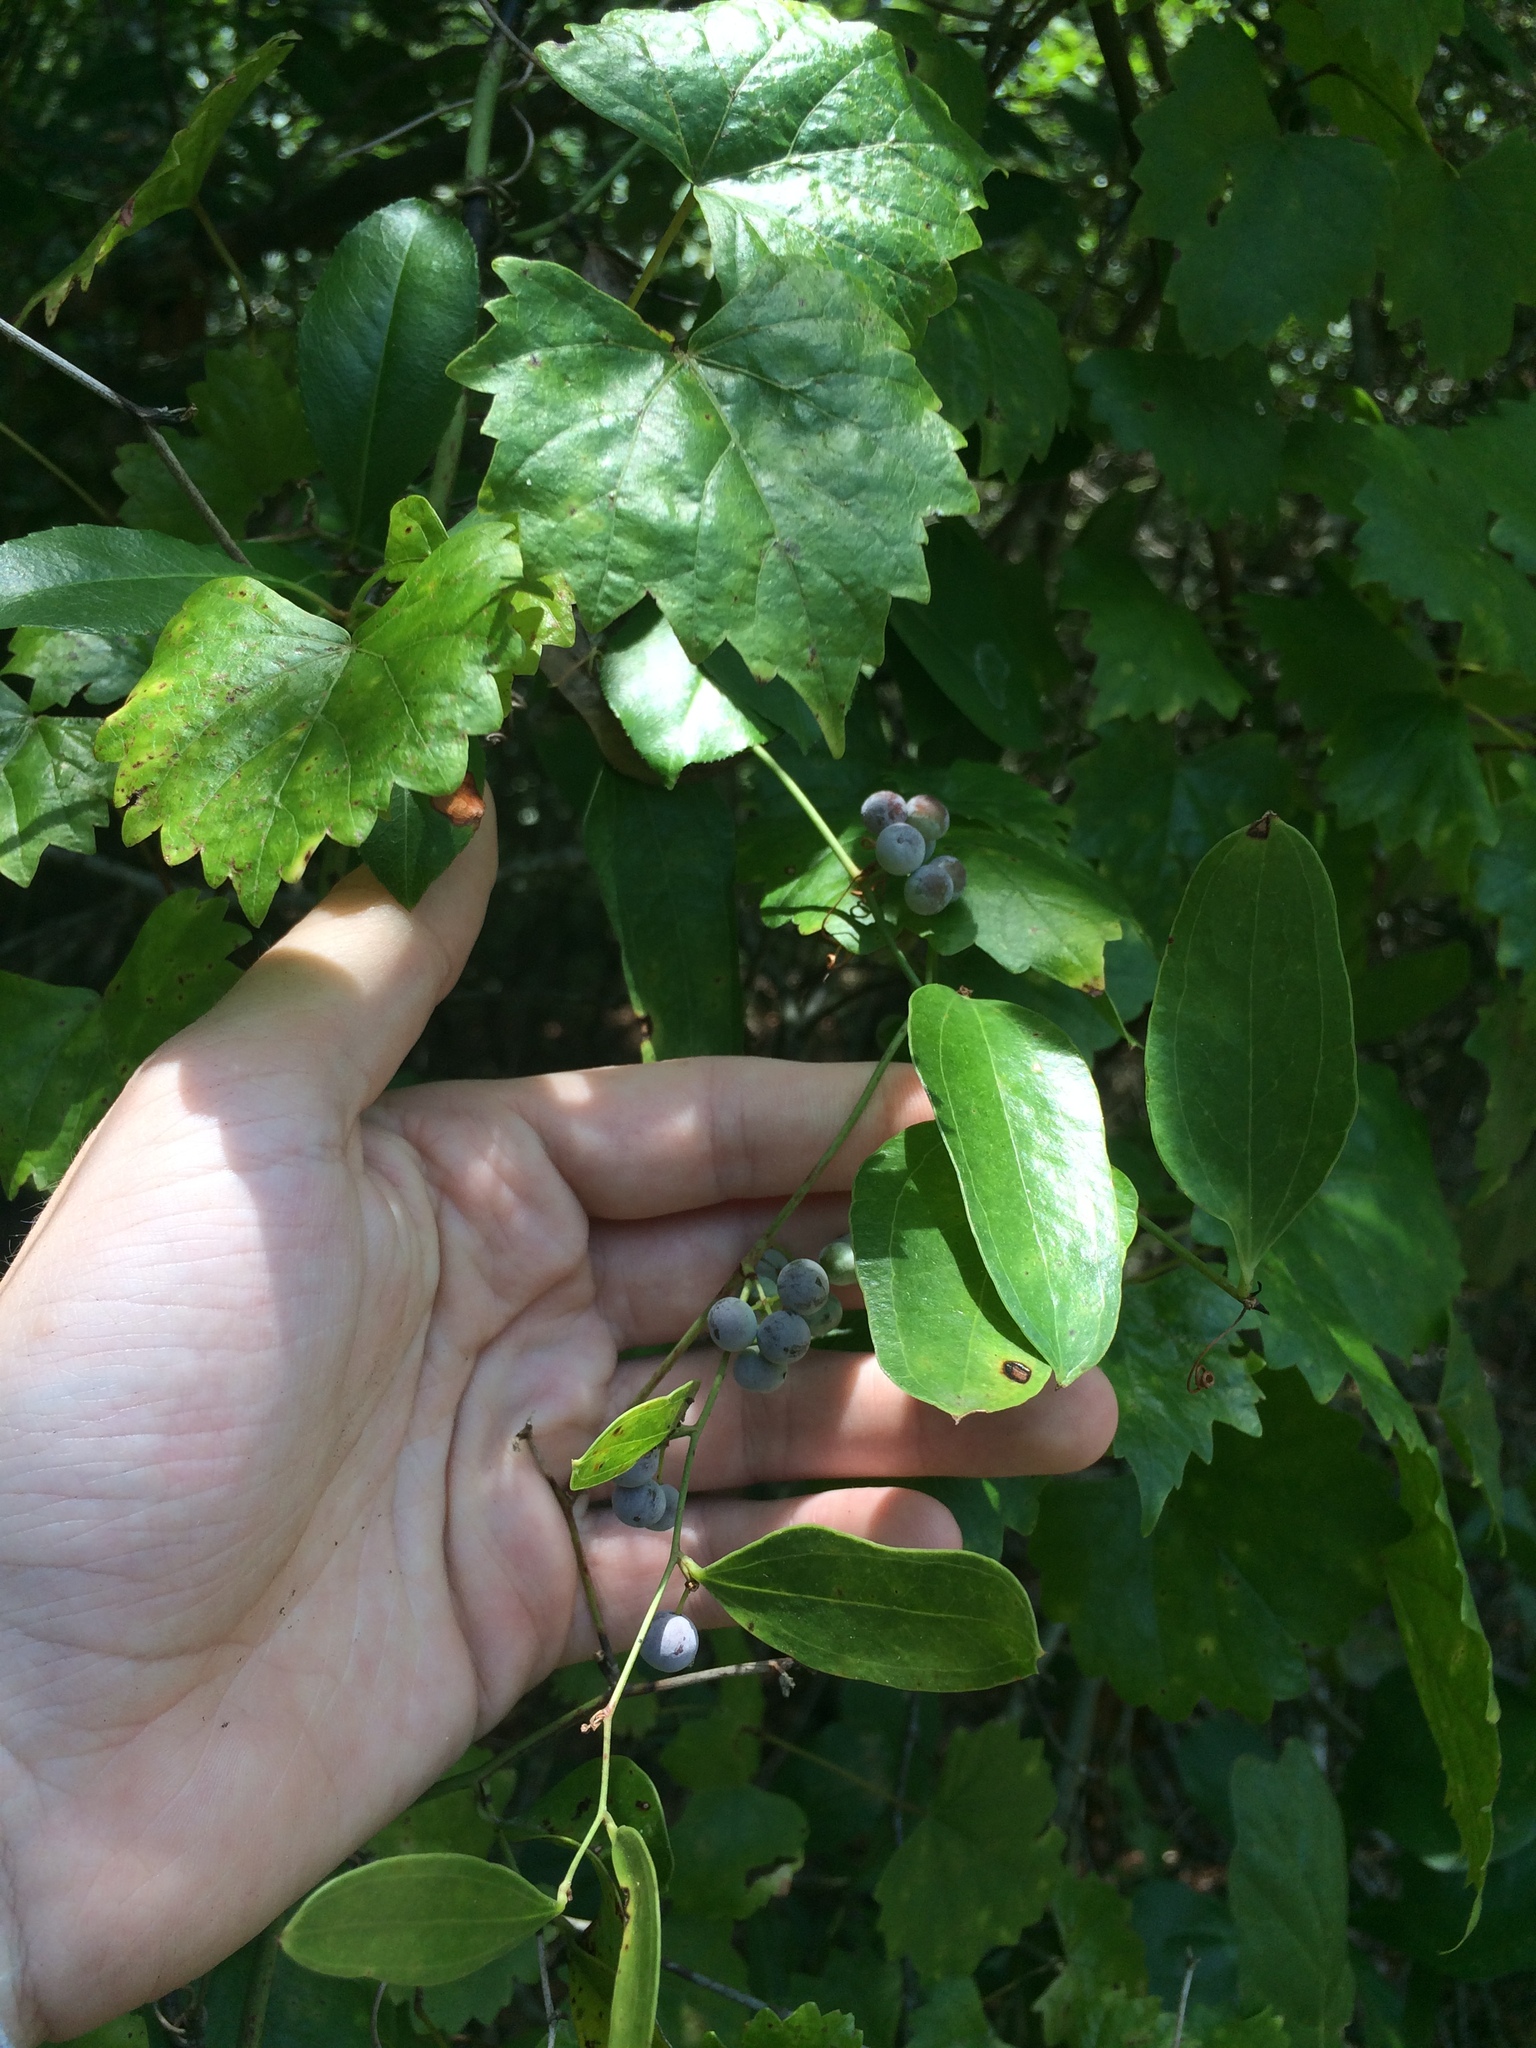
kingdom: Plantae
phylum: Tracheophyta
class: Liliopsida
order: Liliales
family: Smilacaceae
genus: Smilax
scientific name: Smilax auriculata
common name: Wild bamboo
